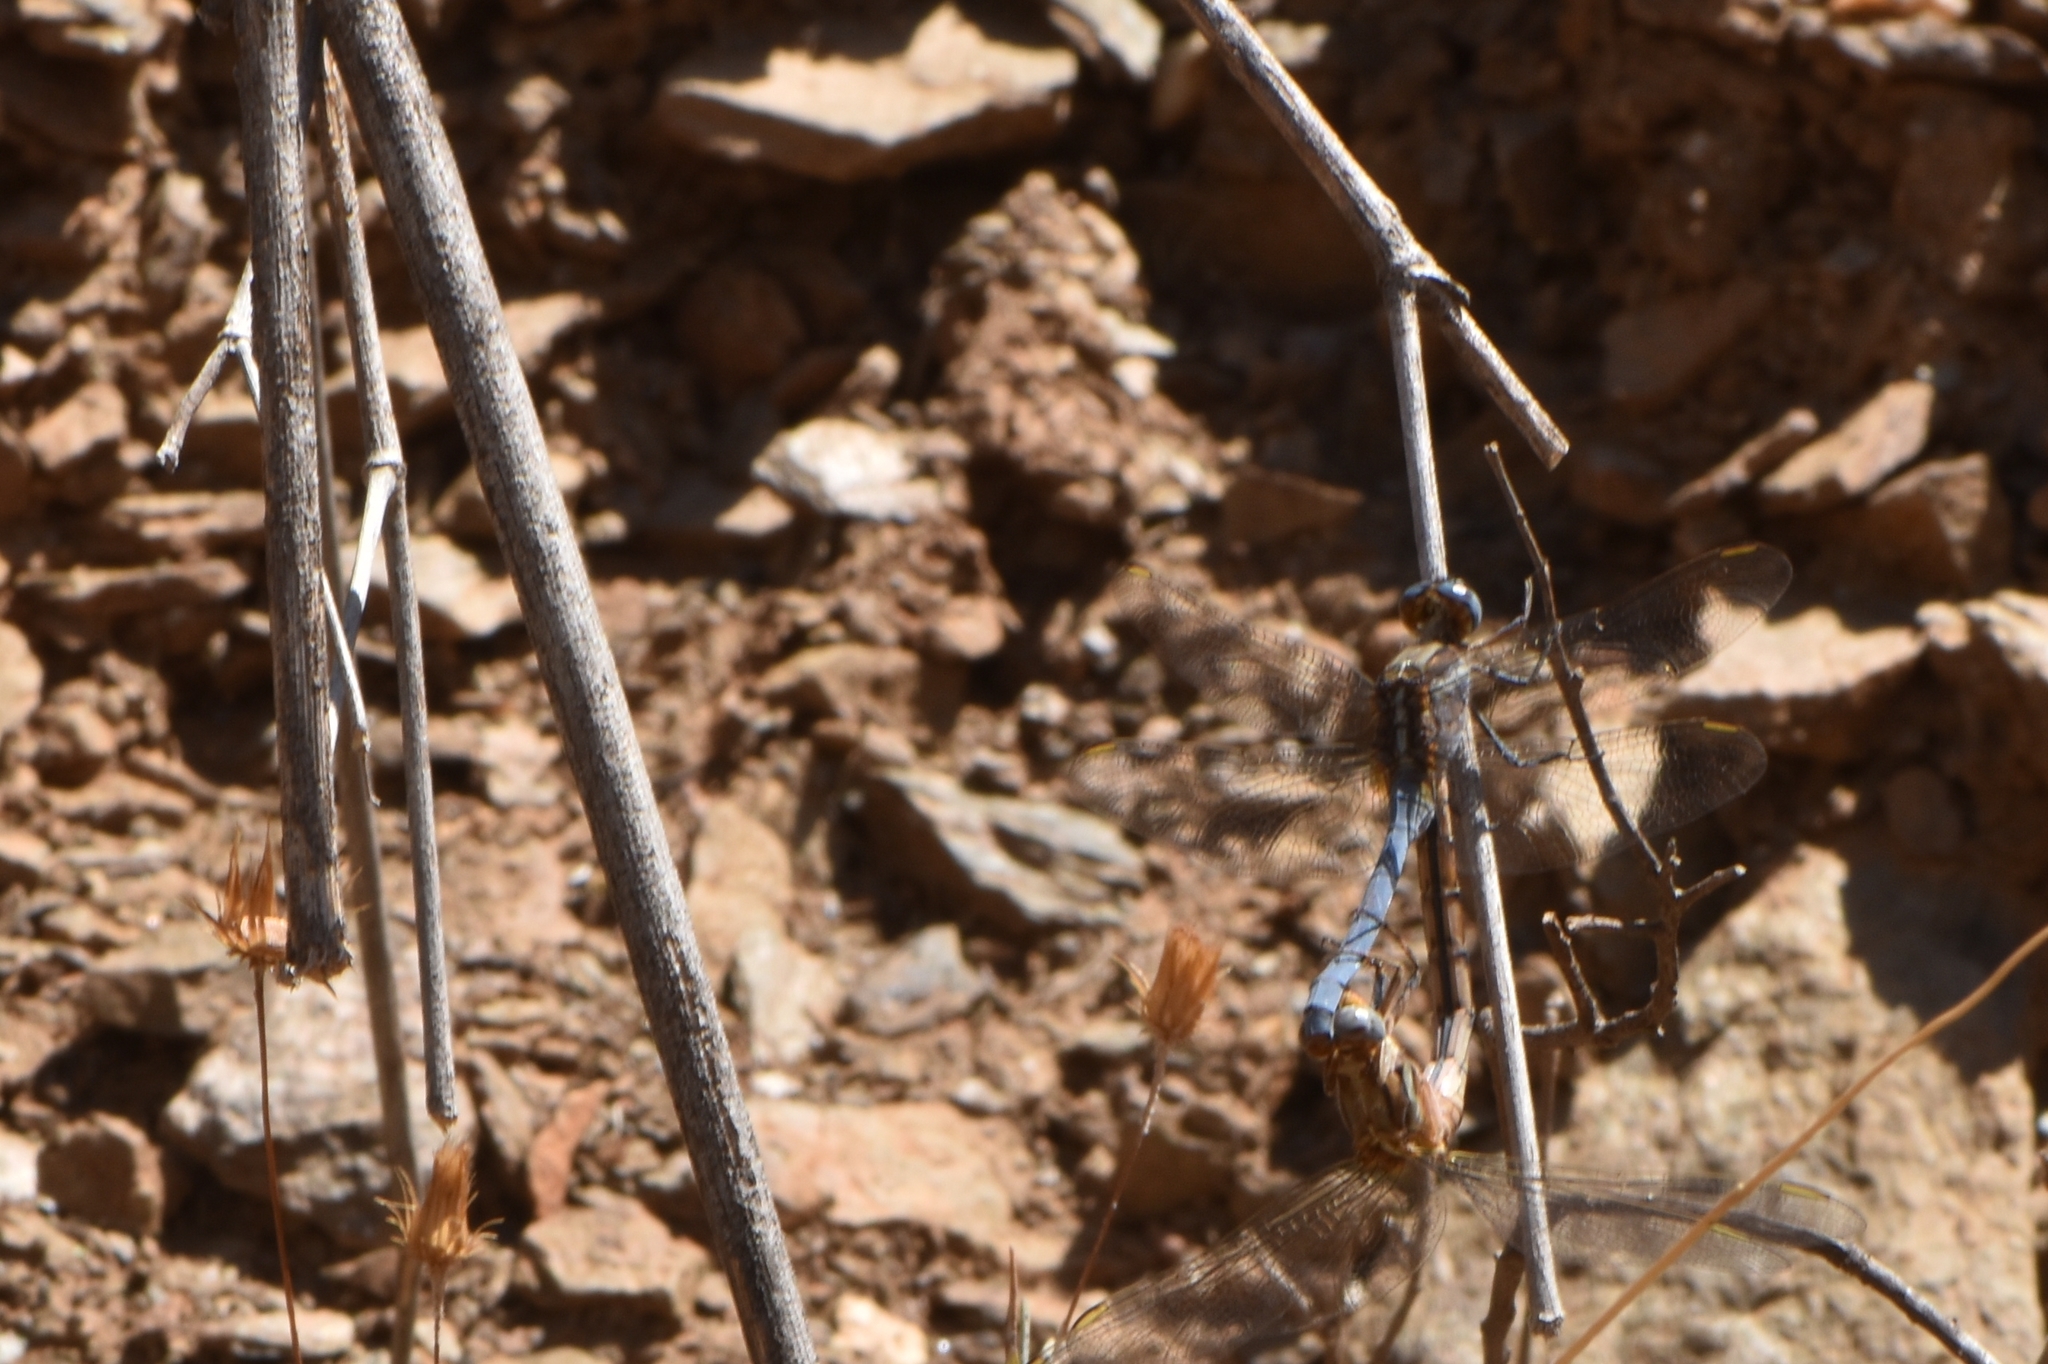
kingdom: Animalia
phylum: Arthropoda
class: Insecta
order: Odonata
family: Libellulidae
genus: Orthetrum
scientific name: Orthetrum chrysostigma
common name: Epaulet skimmer
